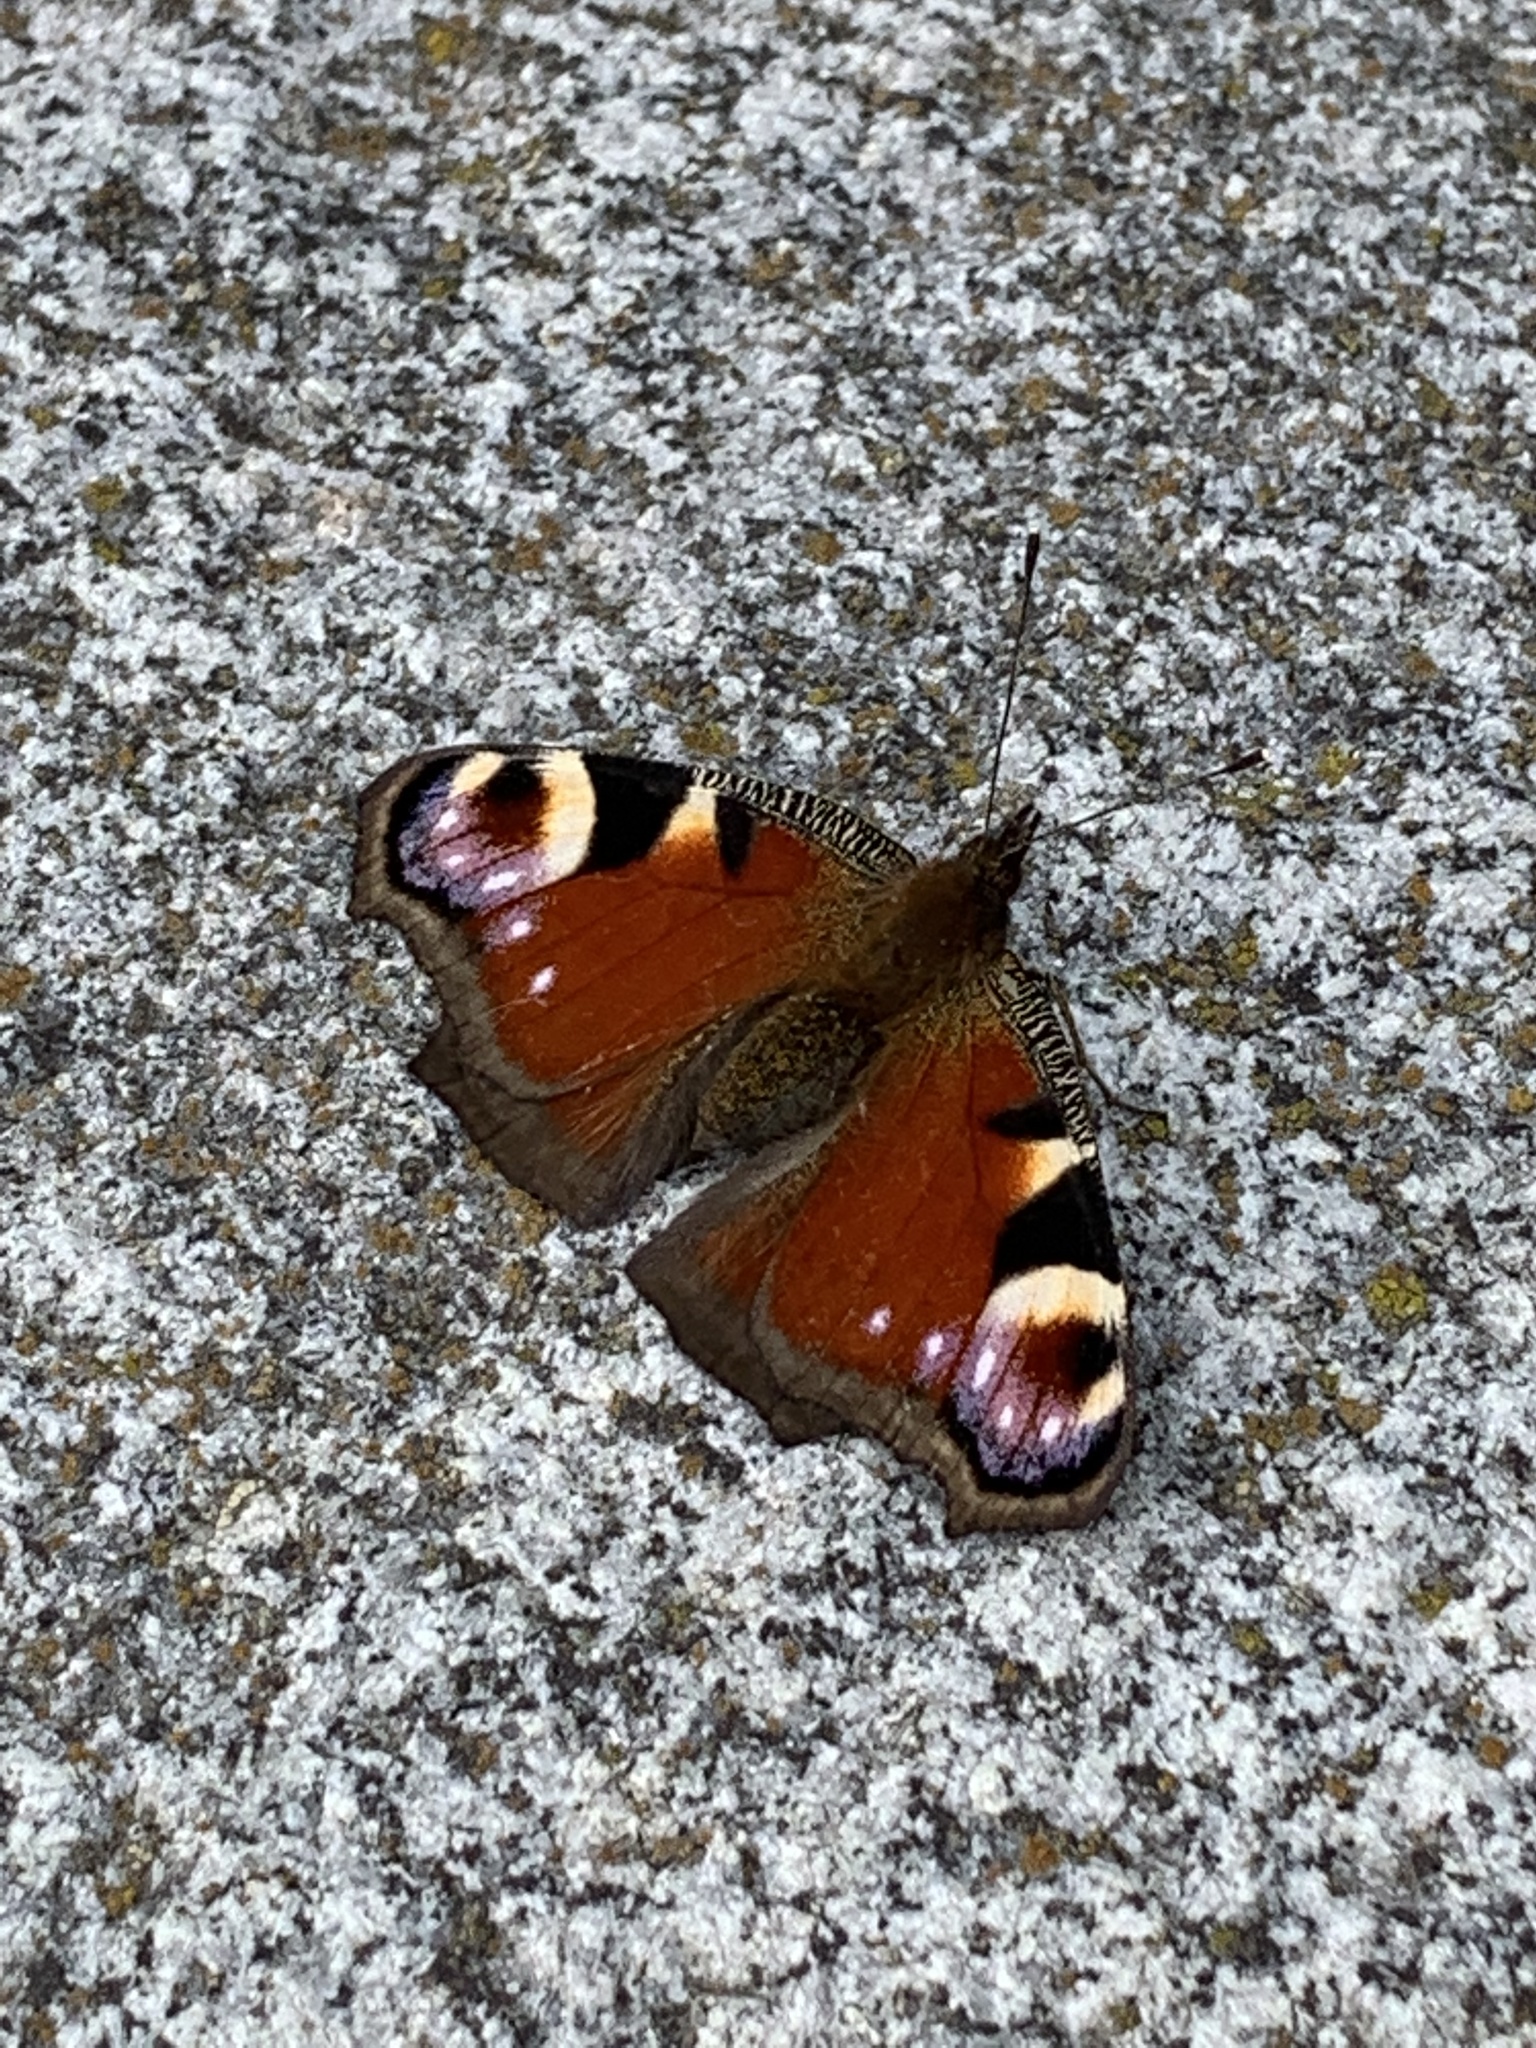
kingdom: Animalia
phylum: Arthropoda
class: Insecta
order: Lepidoptera
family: Nymphalidae
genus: Aglais
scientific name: Aglais io
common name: Peacock
